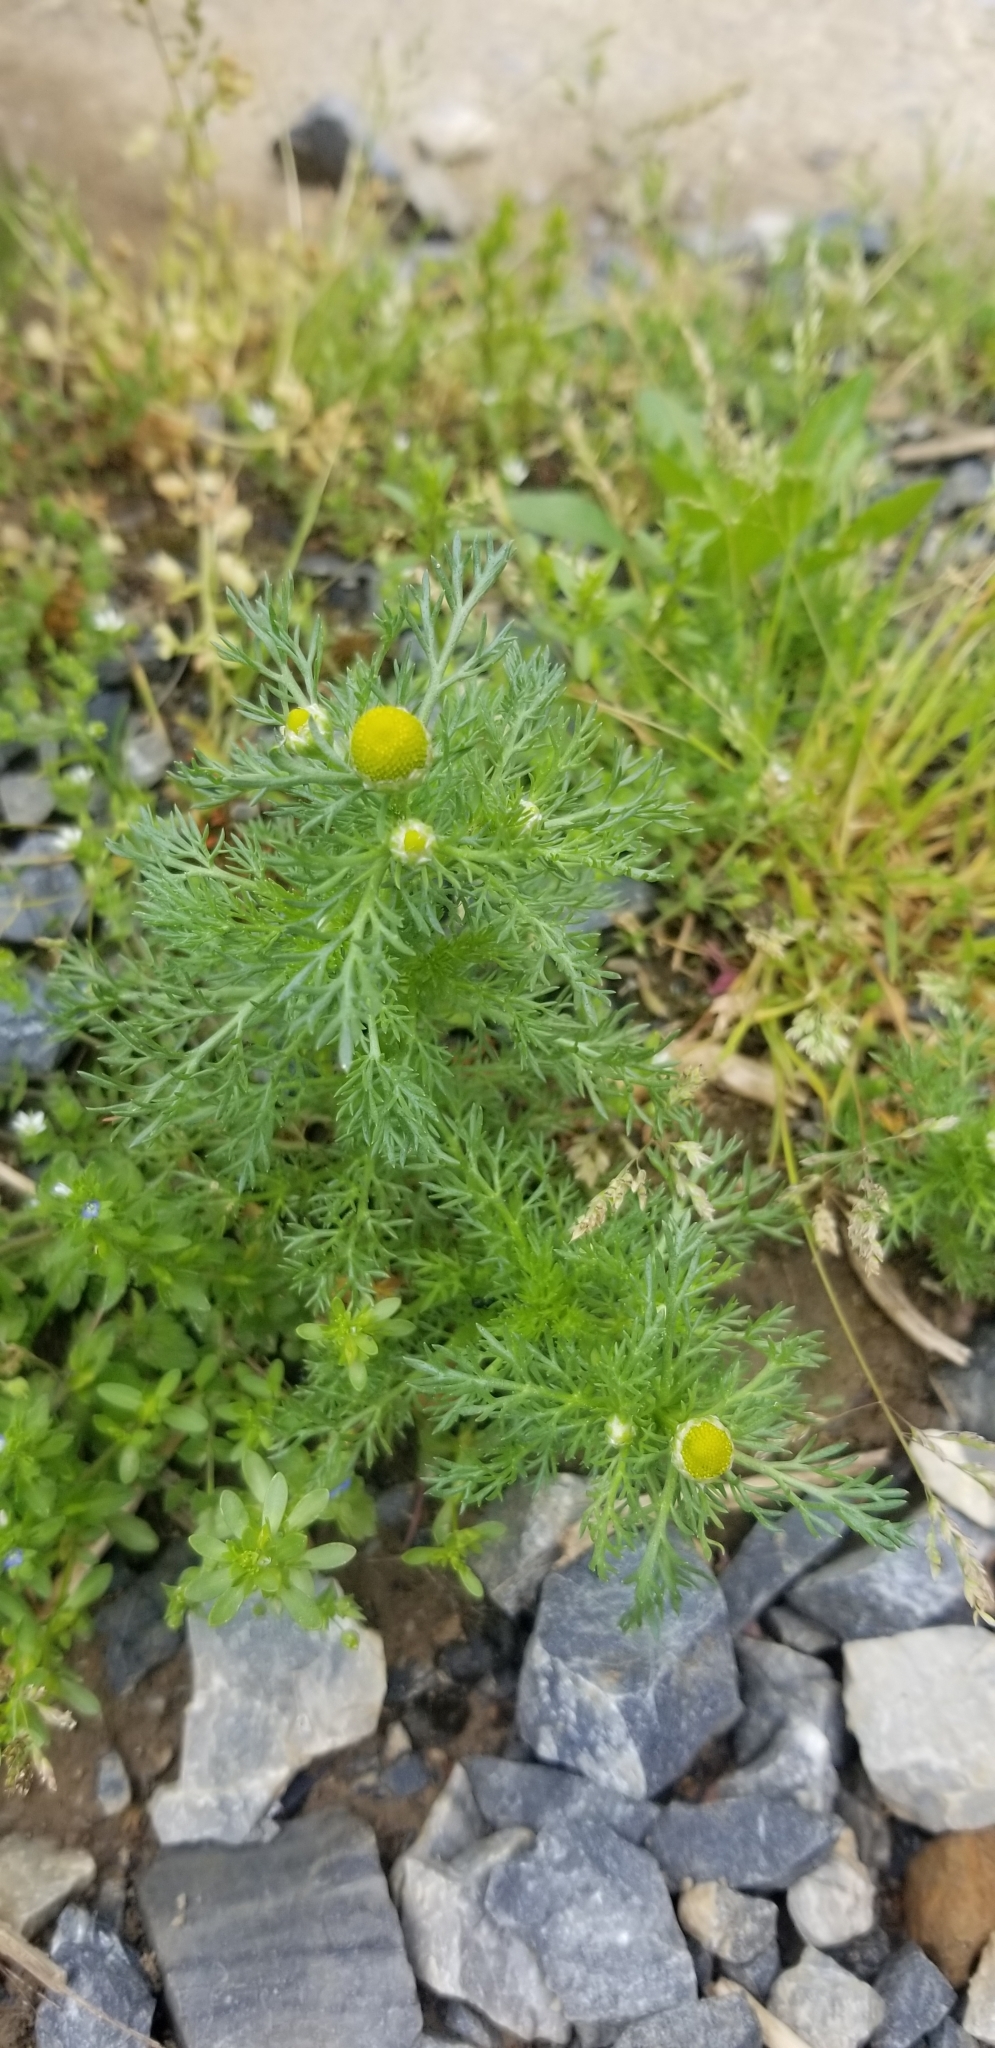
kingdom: Plantae
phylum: Tracheophyta
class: Magnoliopsida
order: Asterales
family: Asteraceae
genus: Matricaria
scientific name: Matricaria discoidea
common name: Disc mayweed
